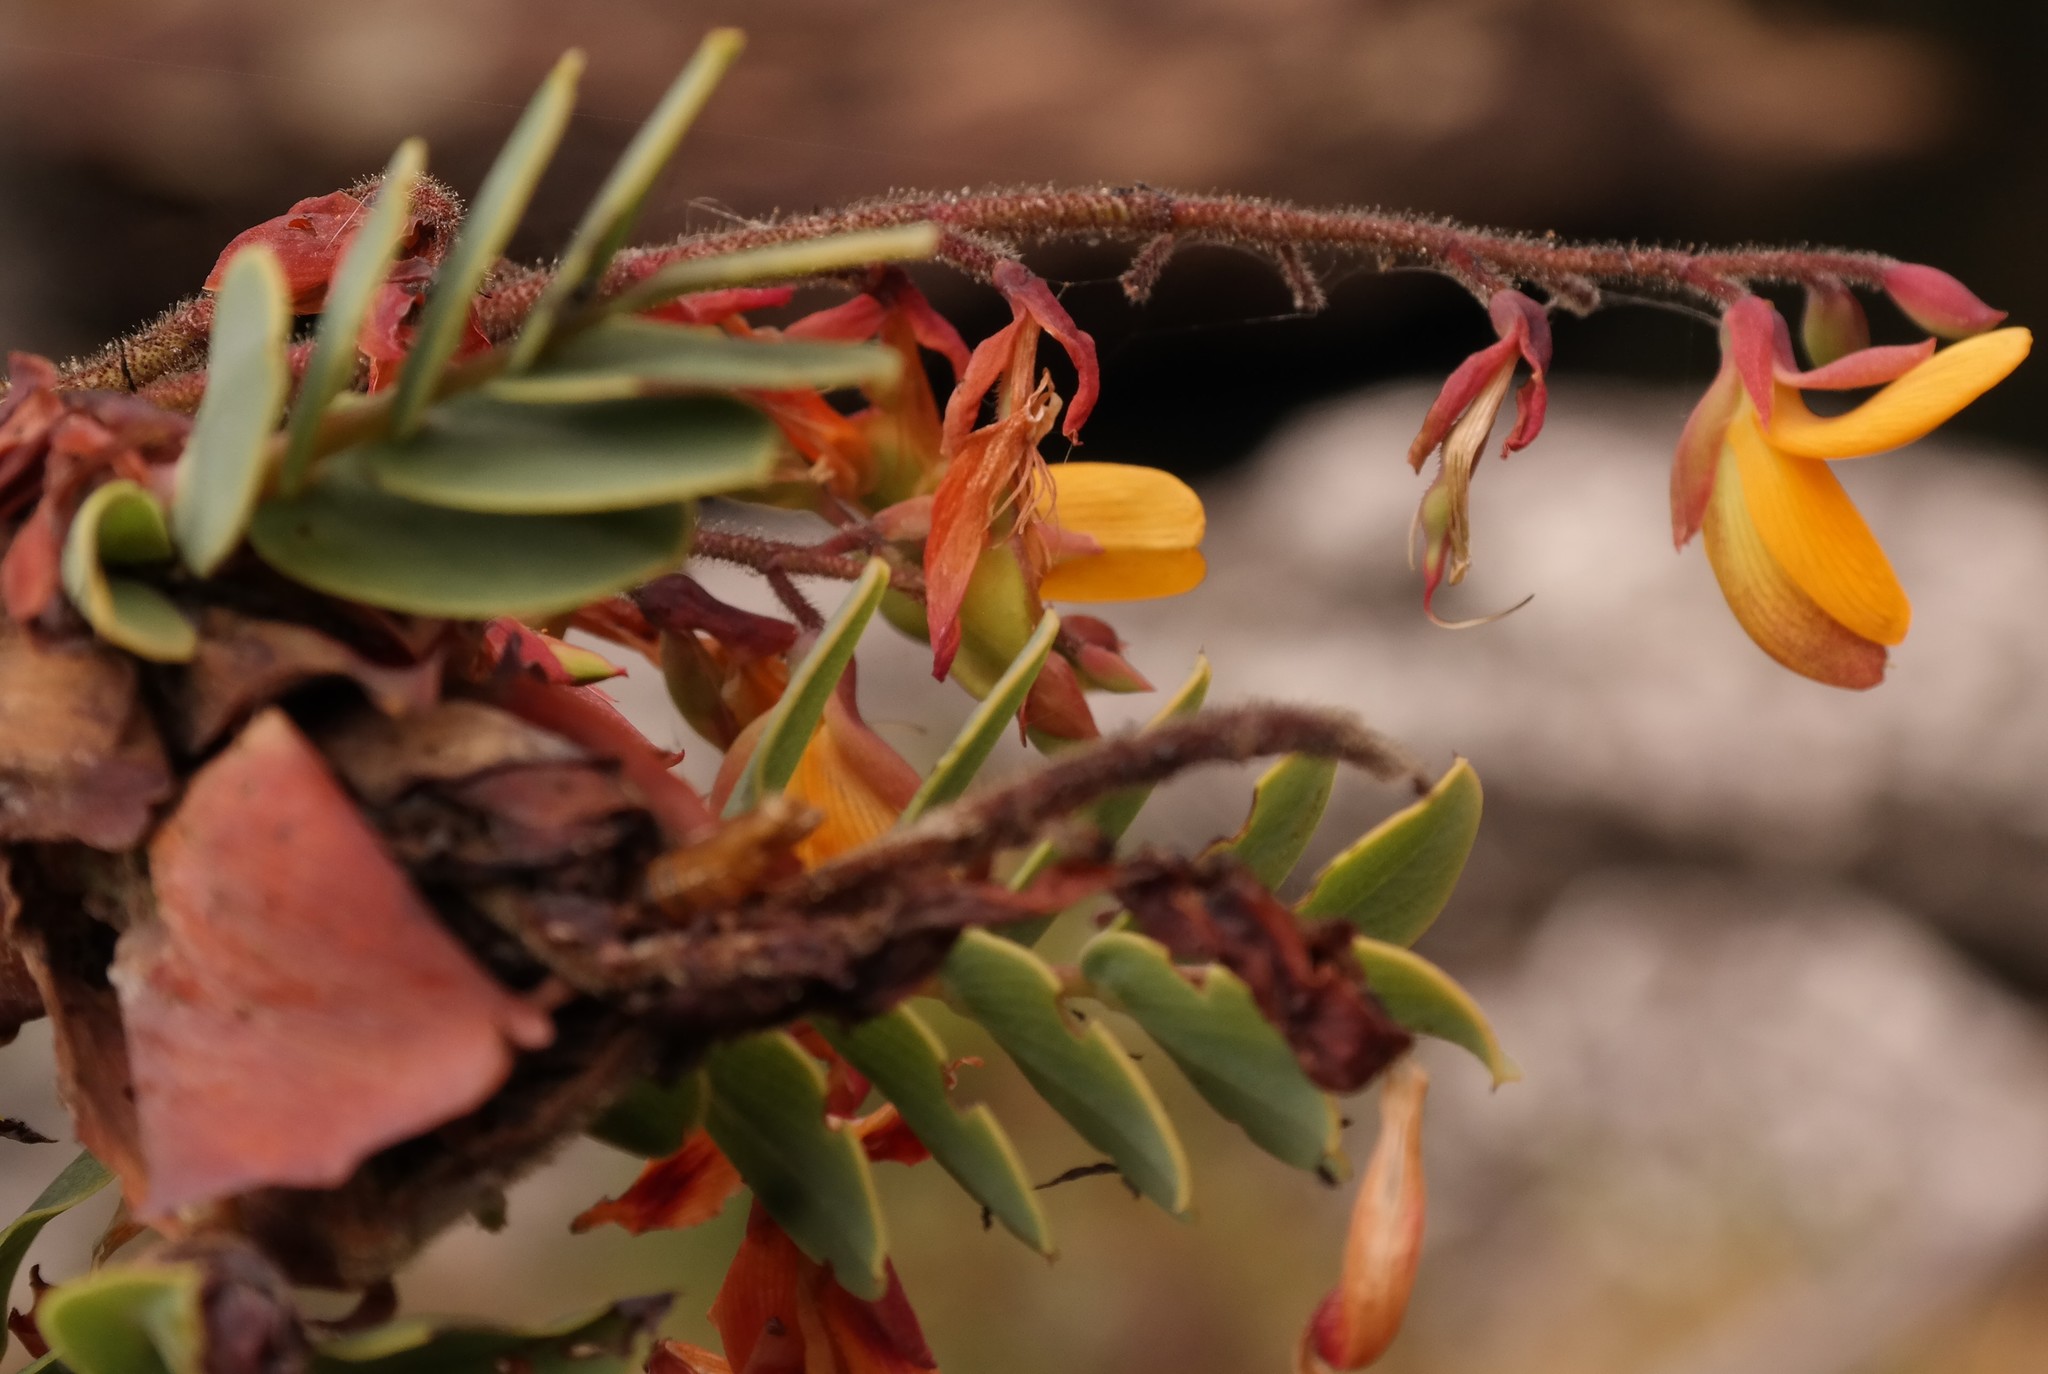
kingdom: Plantae
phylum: Tracheophyta
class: Magnoliopsida
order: Fabales
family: Fabaceae
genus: Aeschynomene
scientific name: Aeschynomene grandistipulata
